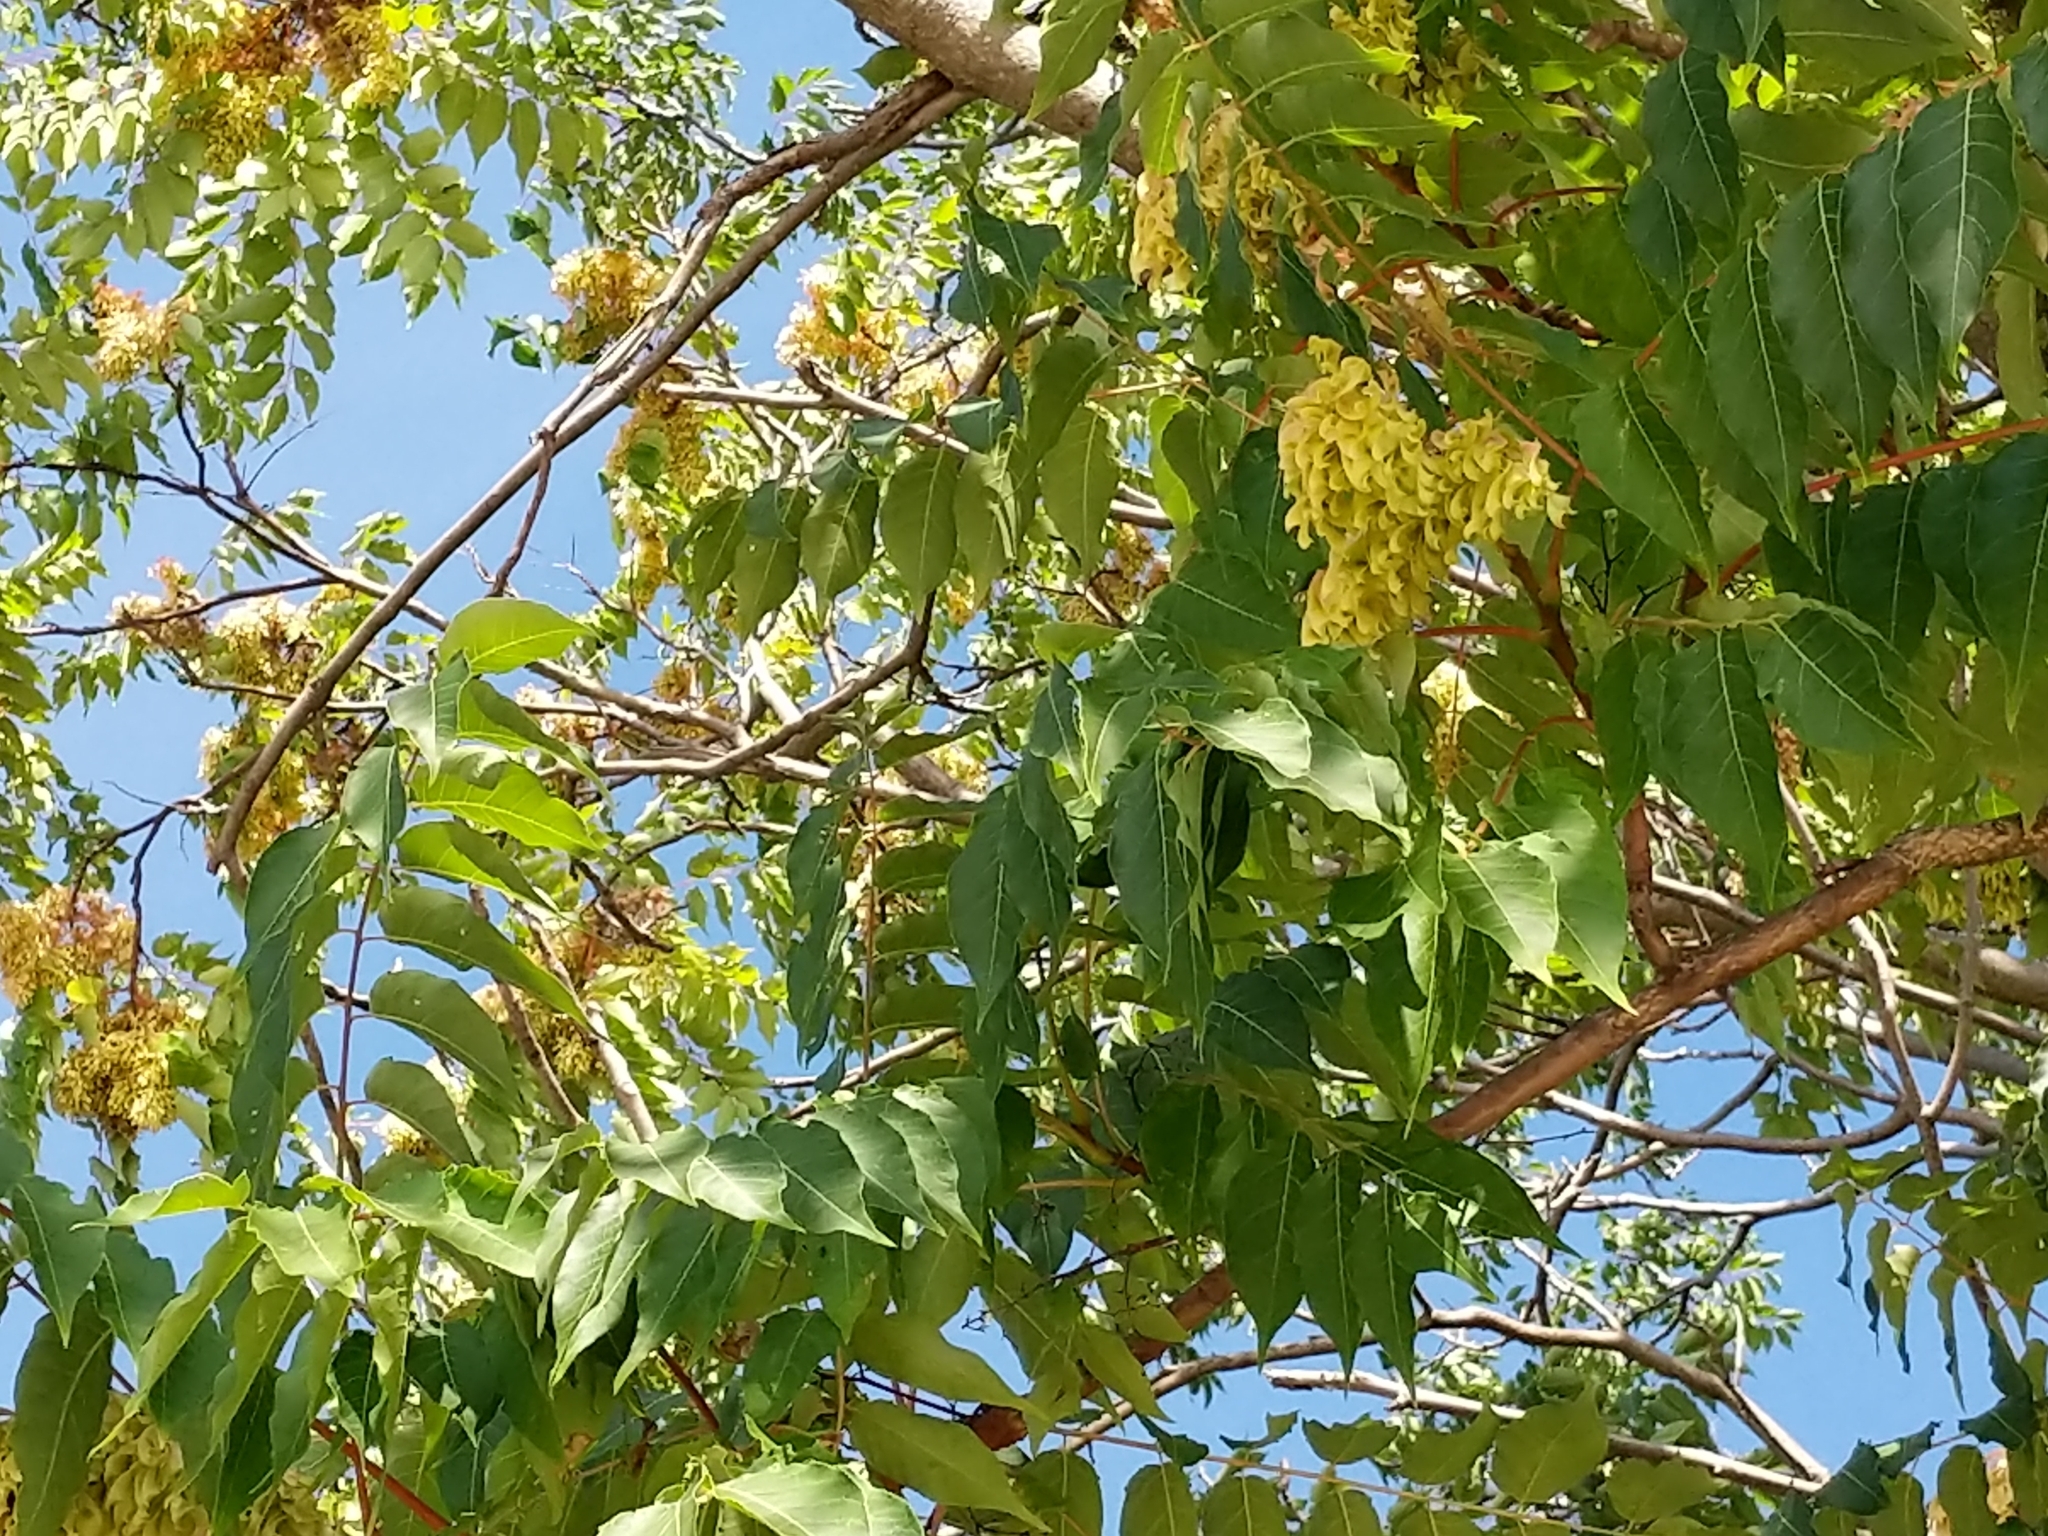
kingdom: Plantae
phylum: Tracheophyta
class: Magnoliopsida
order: Sapindales
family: Simaroubaceae
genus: Ailanthus
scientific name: Ailanthus altissima
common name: Tree-of-heaven
